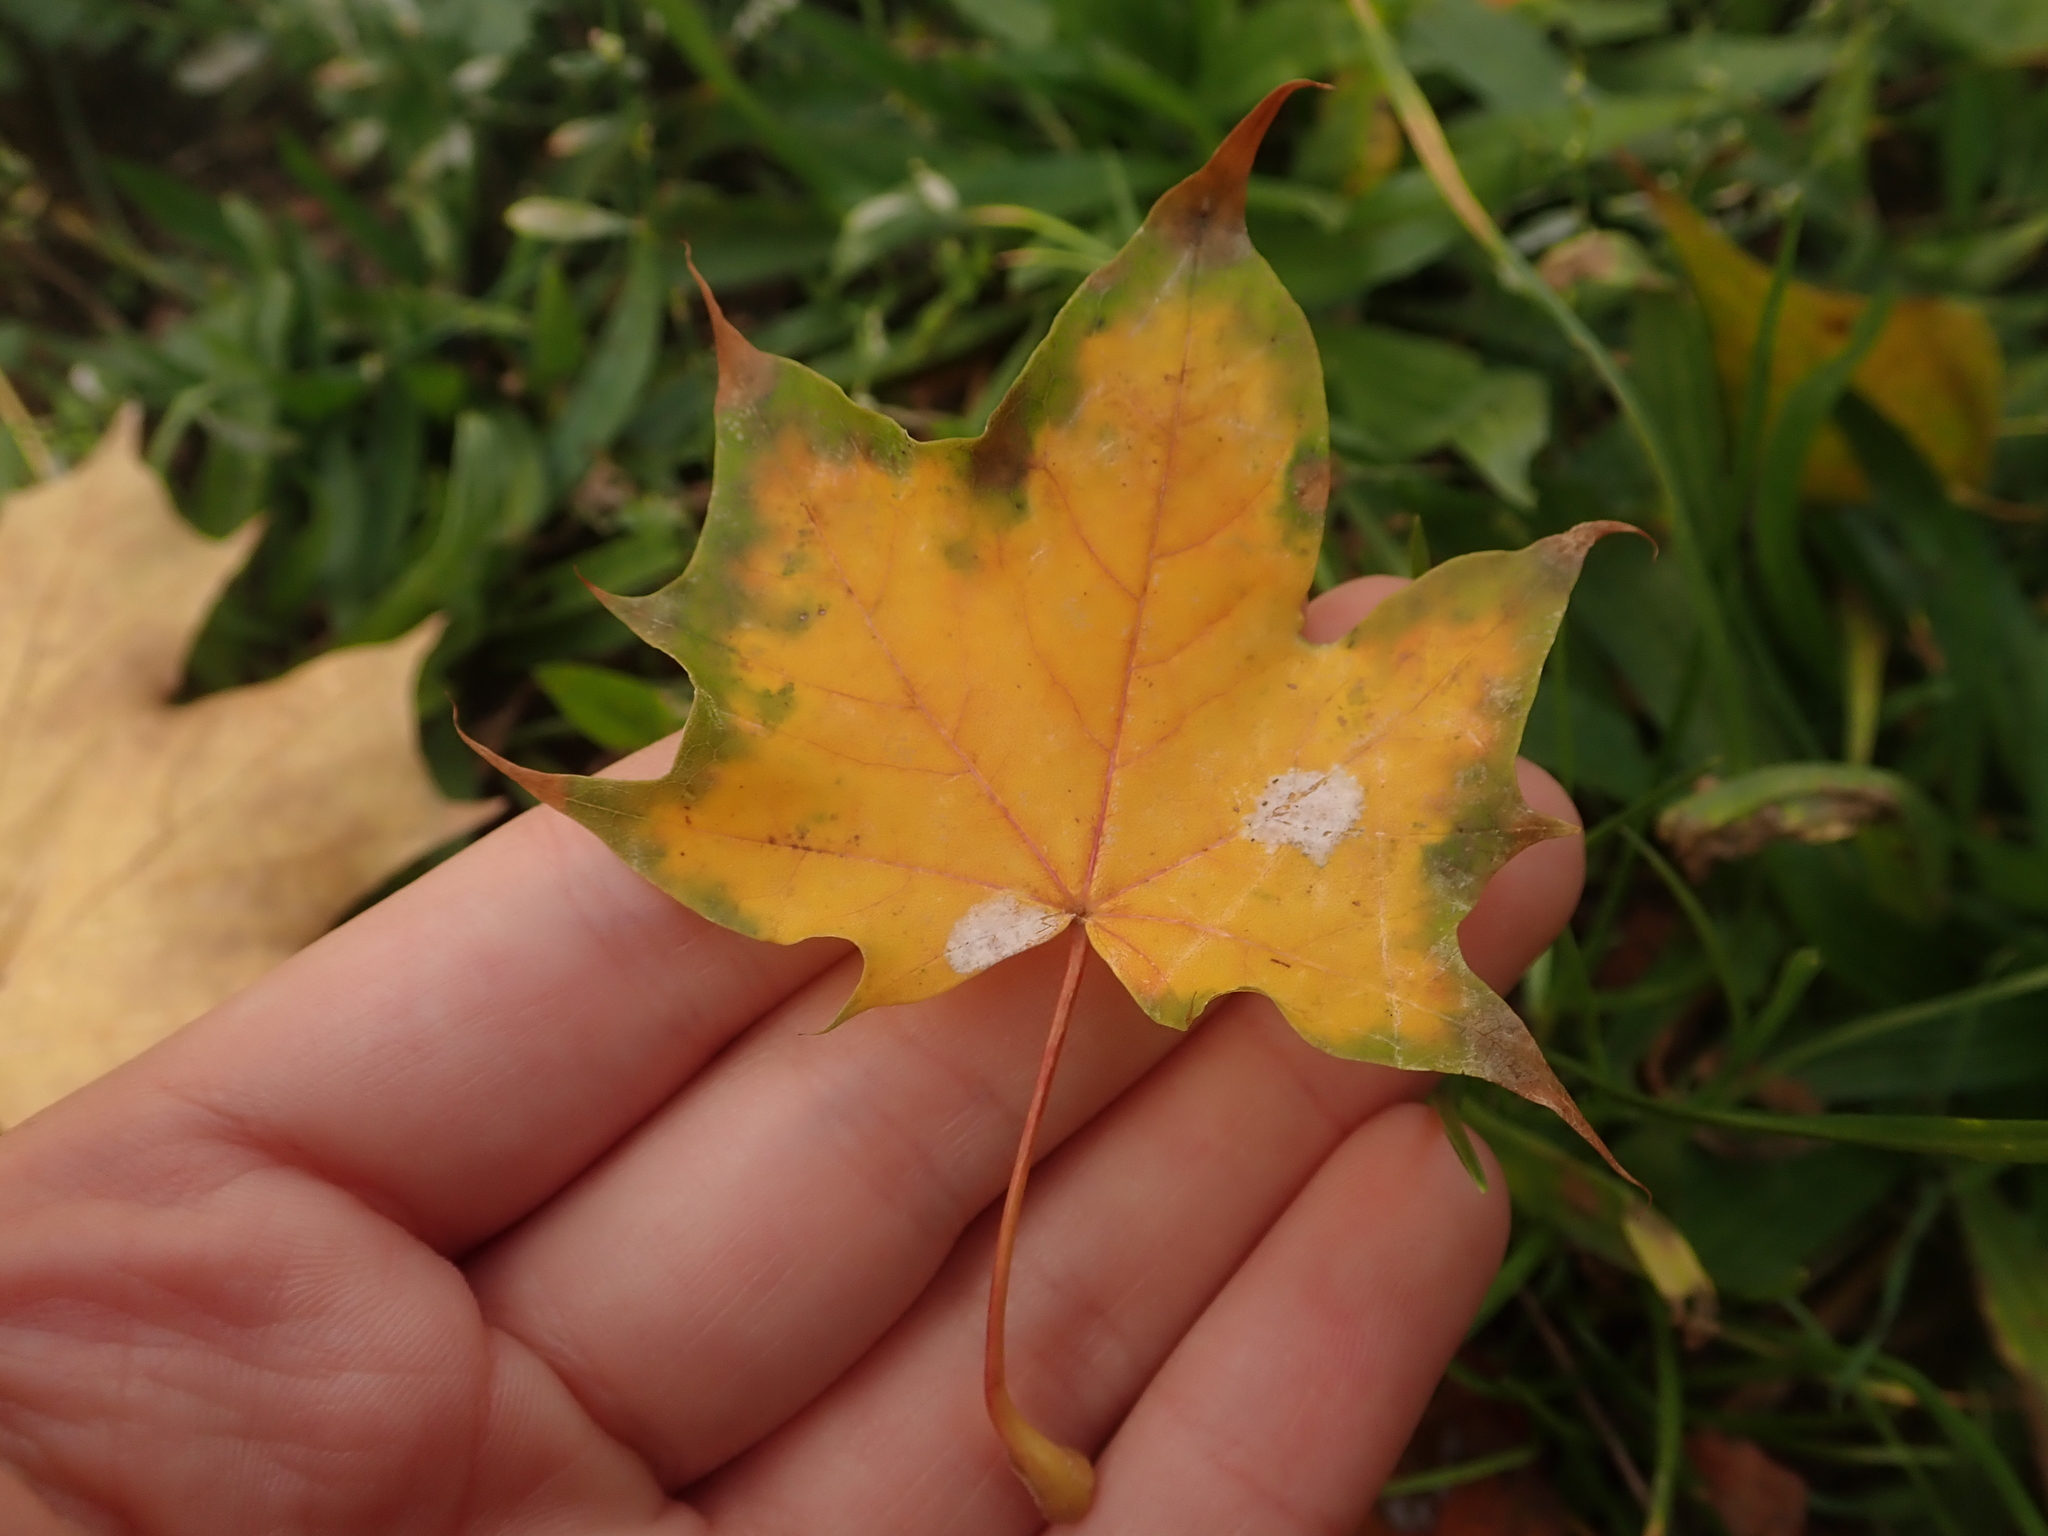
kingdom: Fungi
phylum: Ascomycota
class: Leotiomycetes
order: Helotiales
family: Erysiphaceae
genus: Sawadaea
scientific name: Sawadaea tulasnei
